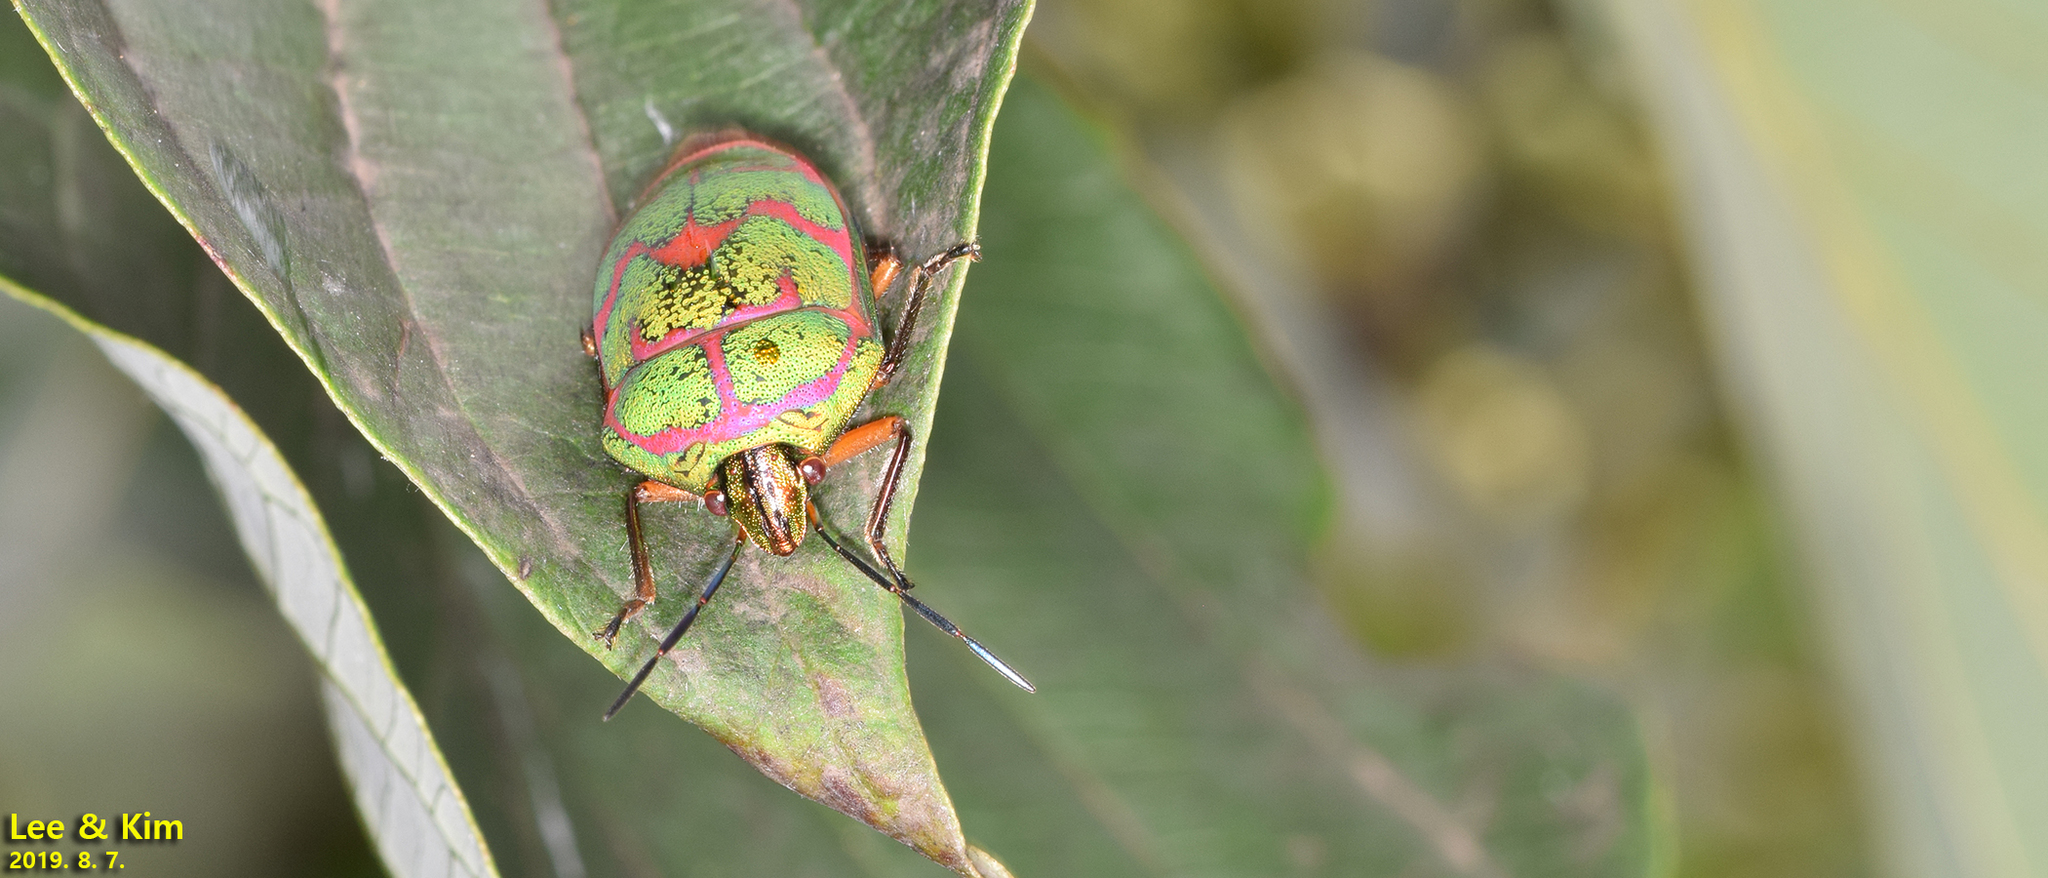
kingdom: Animalia
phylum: Arthropoda
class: Insecta
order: Hemiptera
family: Scutelleridae
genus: Poecilocoris
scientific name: Poecilocoris lewisi
